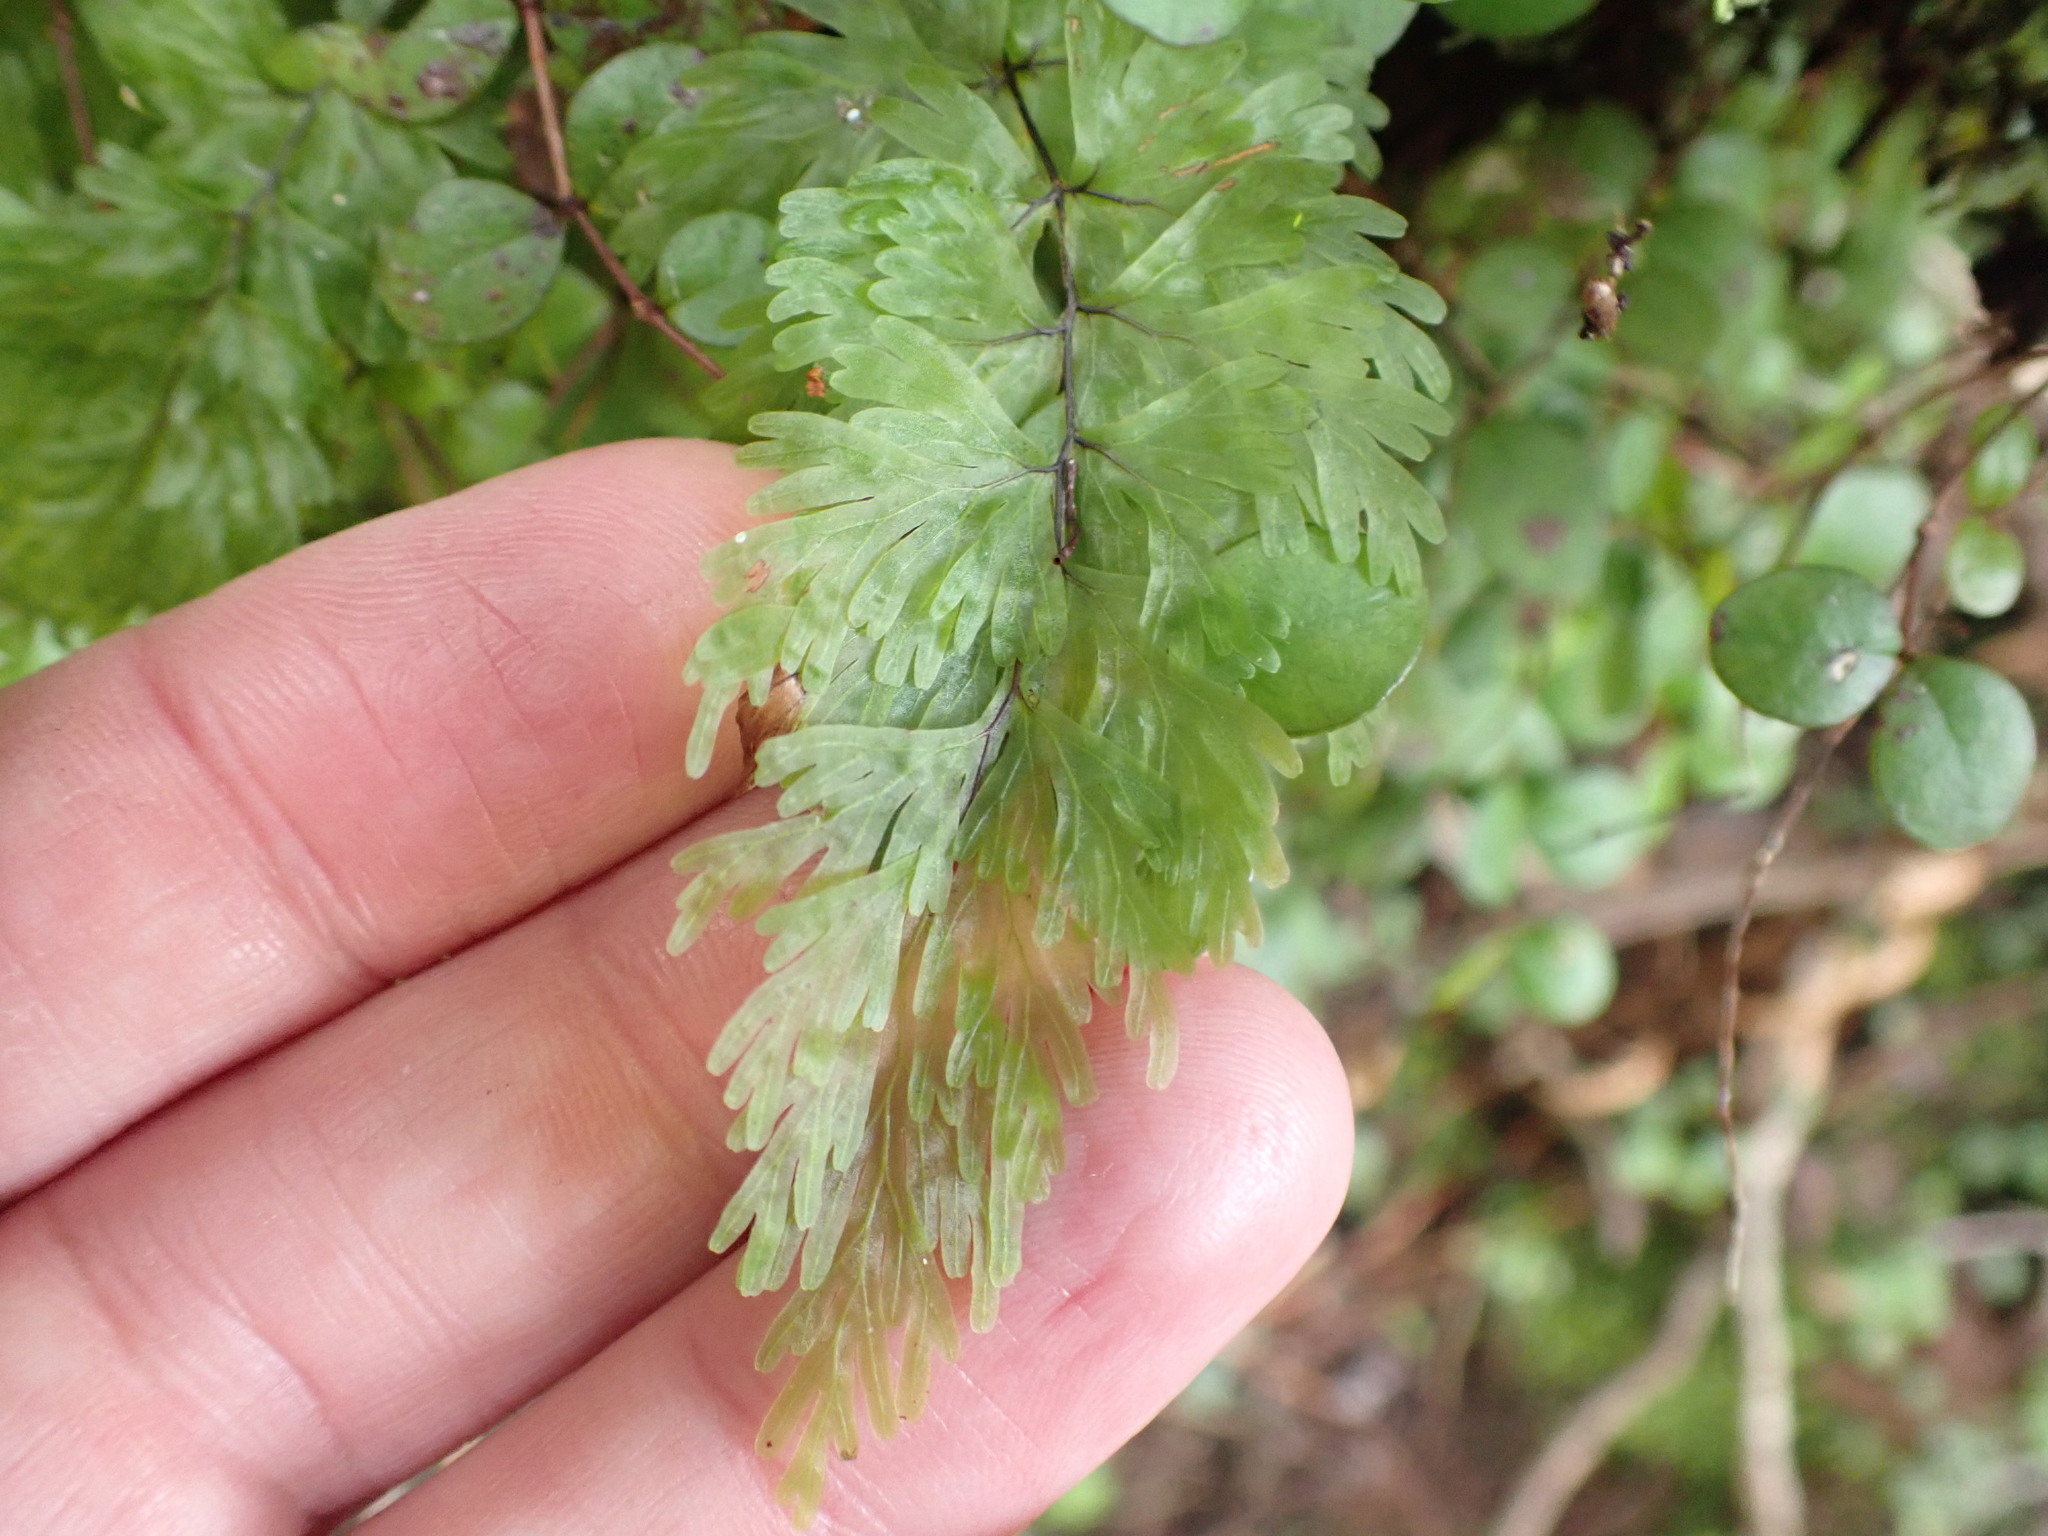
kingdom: Plantae
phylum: Tracheophyta
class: Polypodiopsida
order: Hymenophyllales
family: Hymenophyllaceae
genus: Hymenophyllum
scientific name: Hymenophyllum flabellatum
